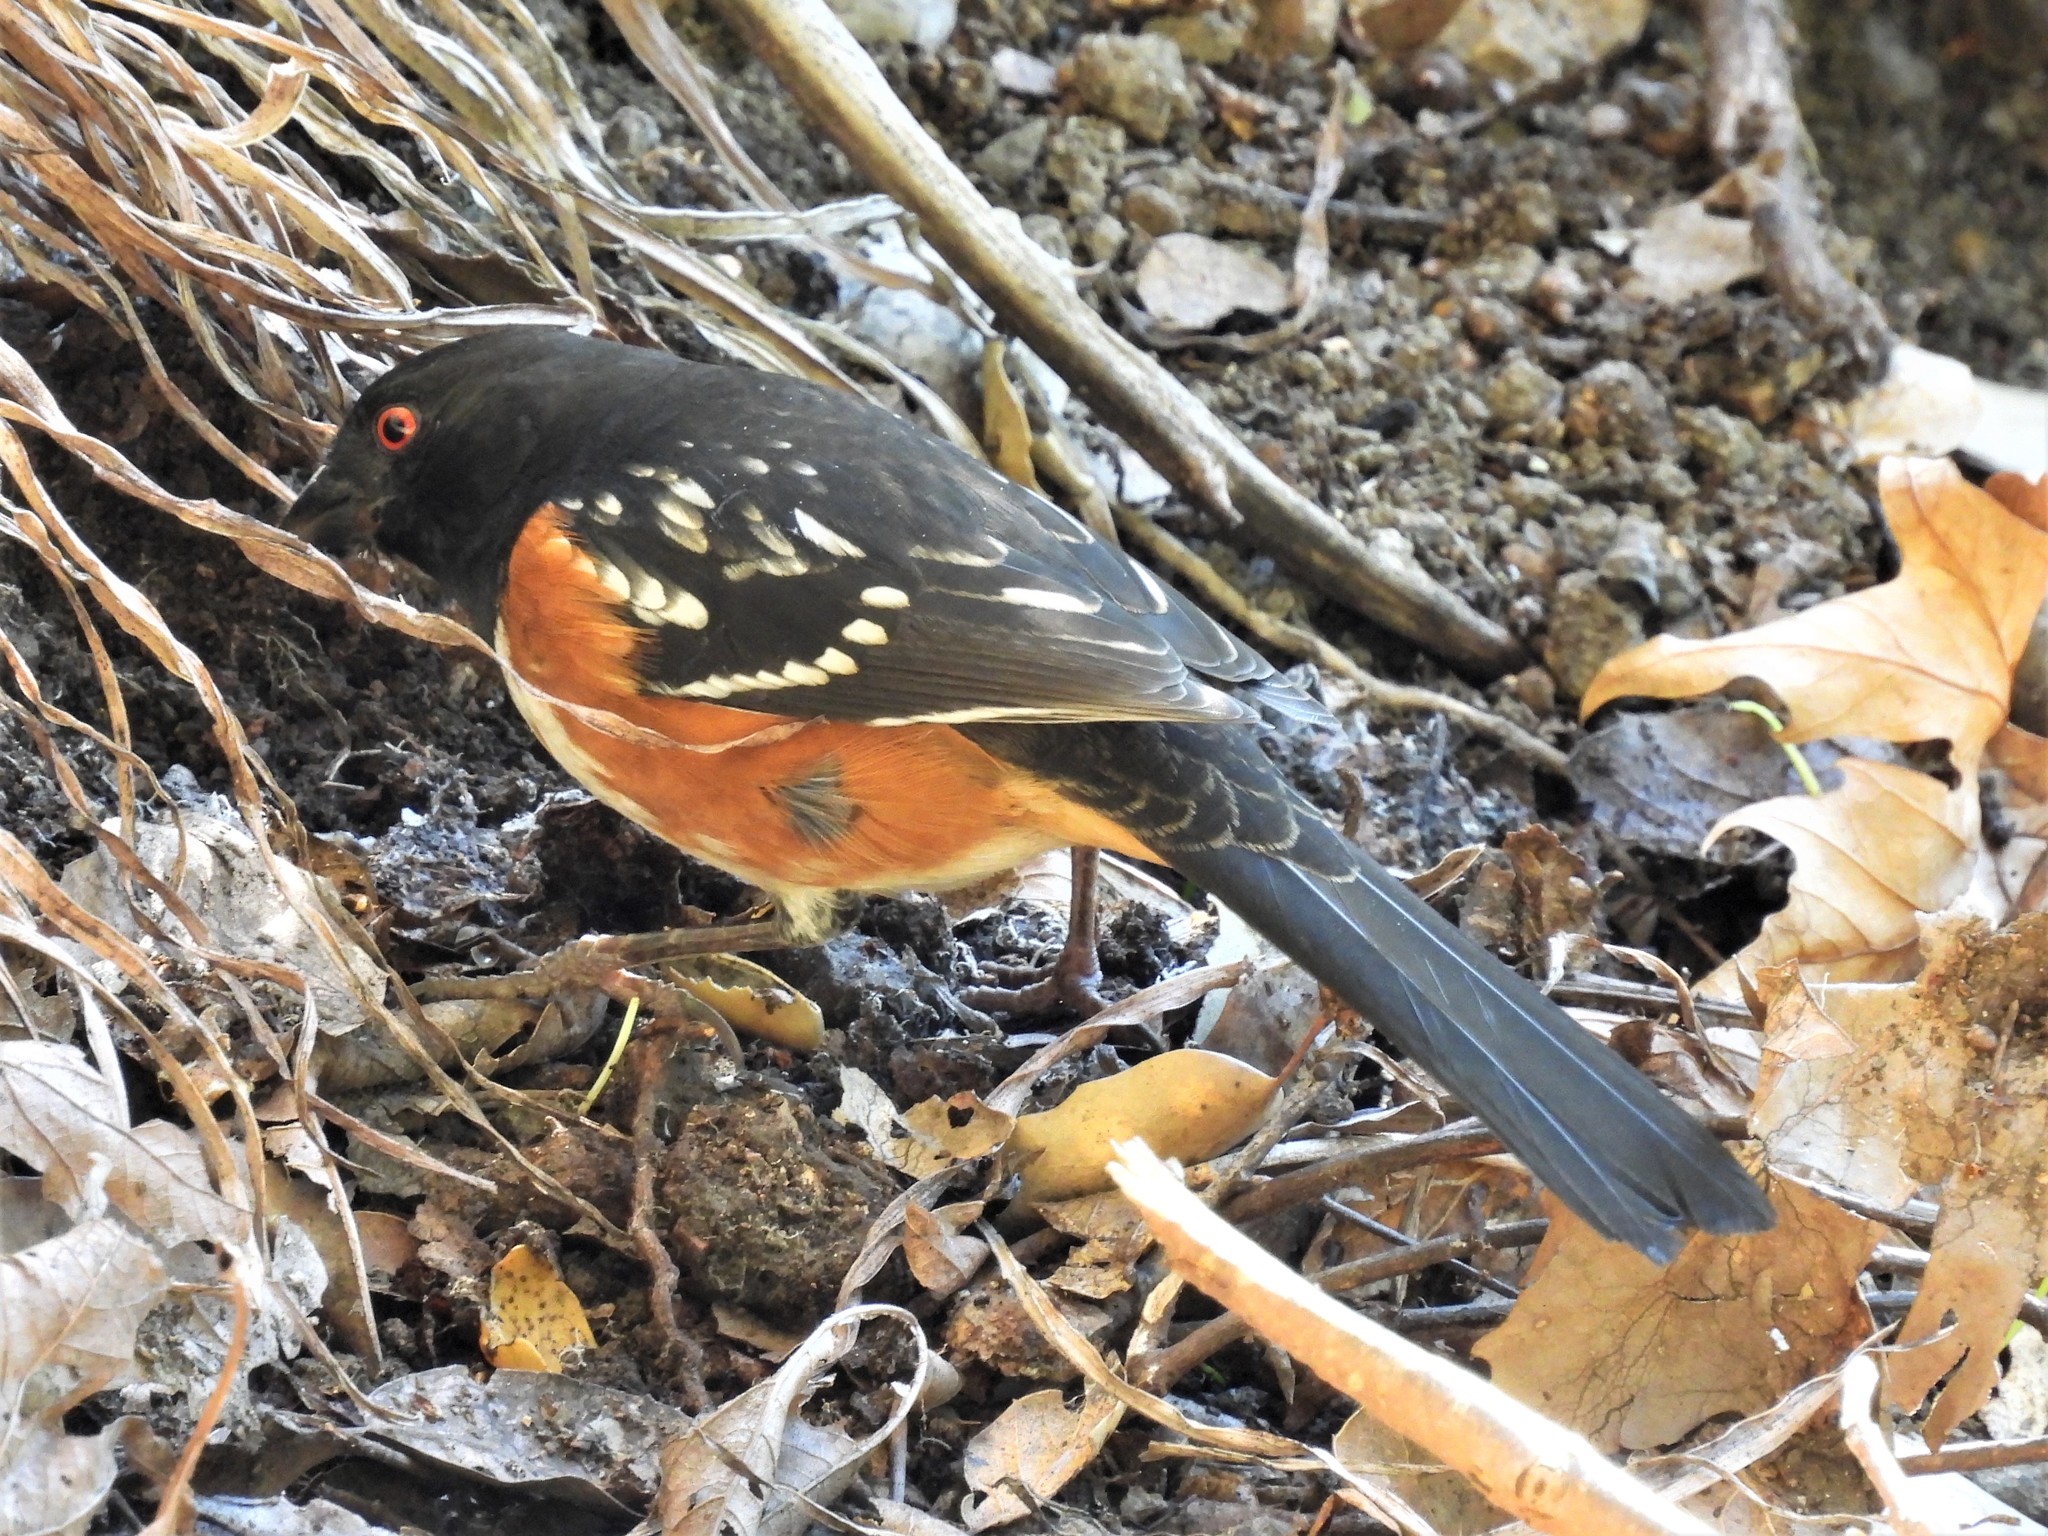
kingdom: Animalia
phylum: Chordata
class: Aves
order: Passeriformes
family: Passerellidae
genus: Pipilo
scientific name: Pipilo maculatus
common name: Spotted towhee
